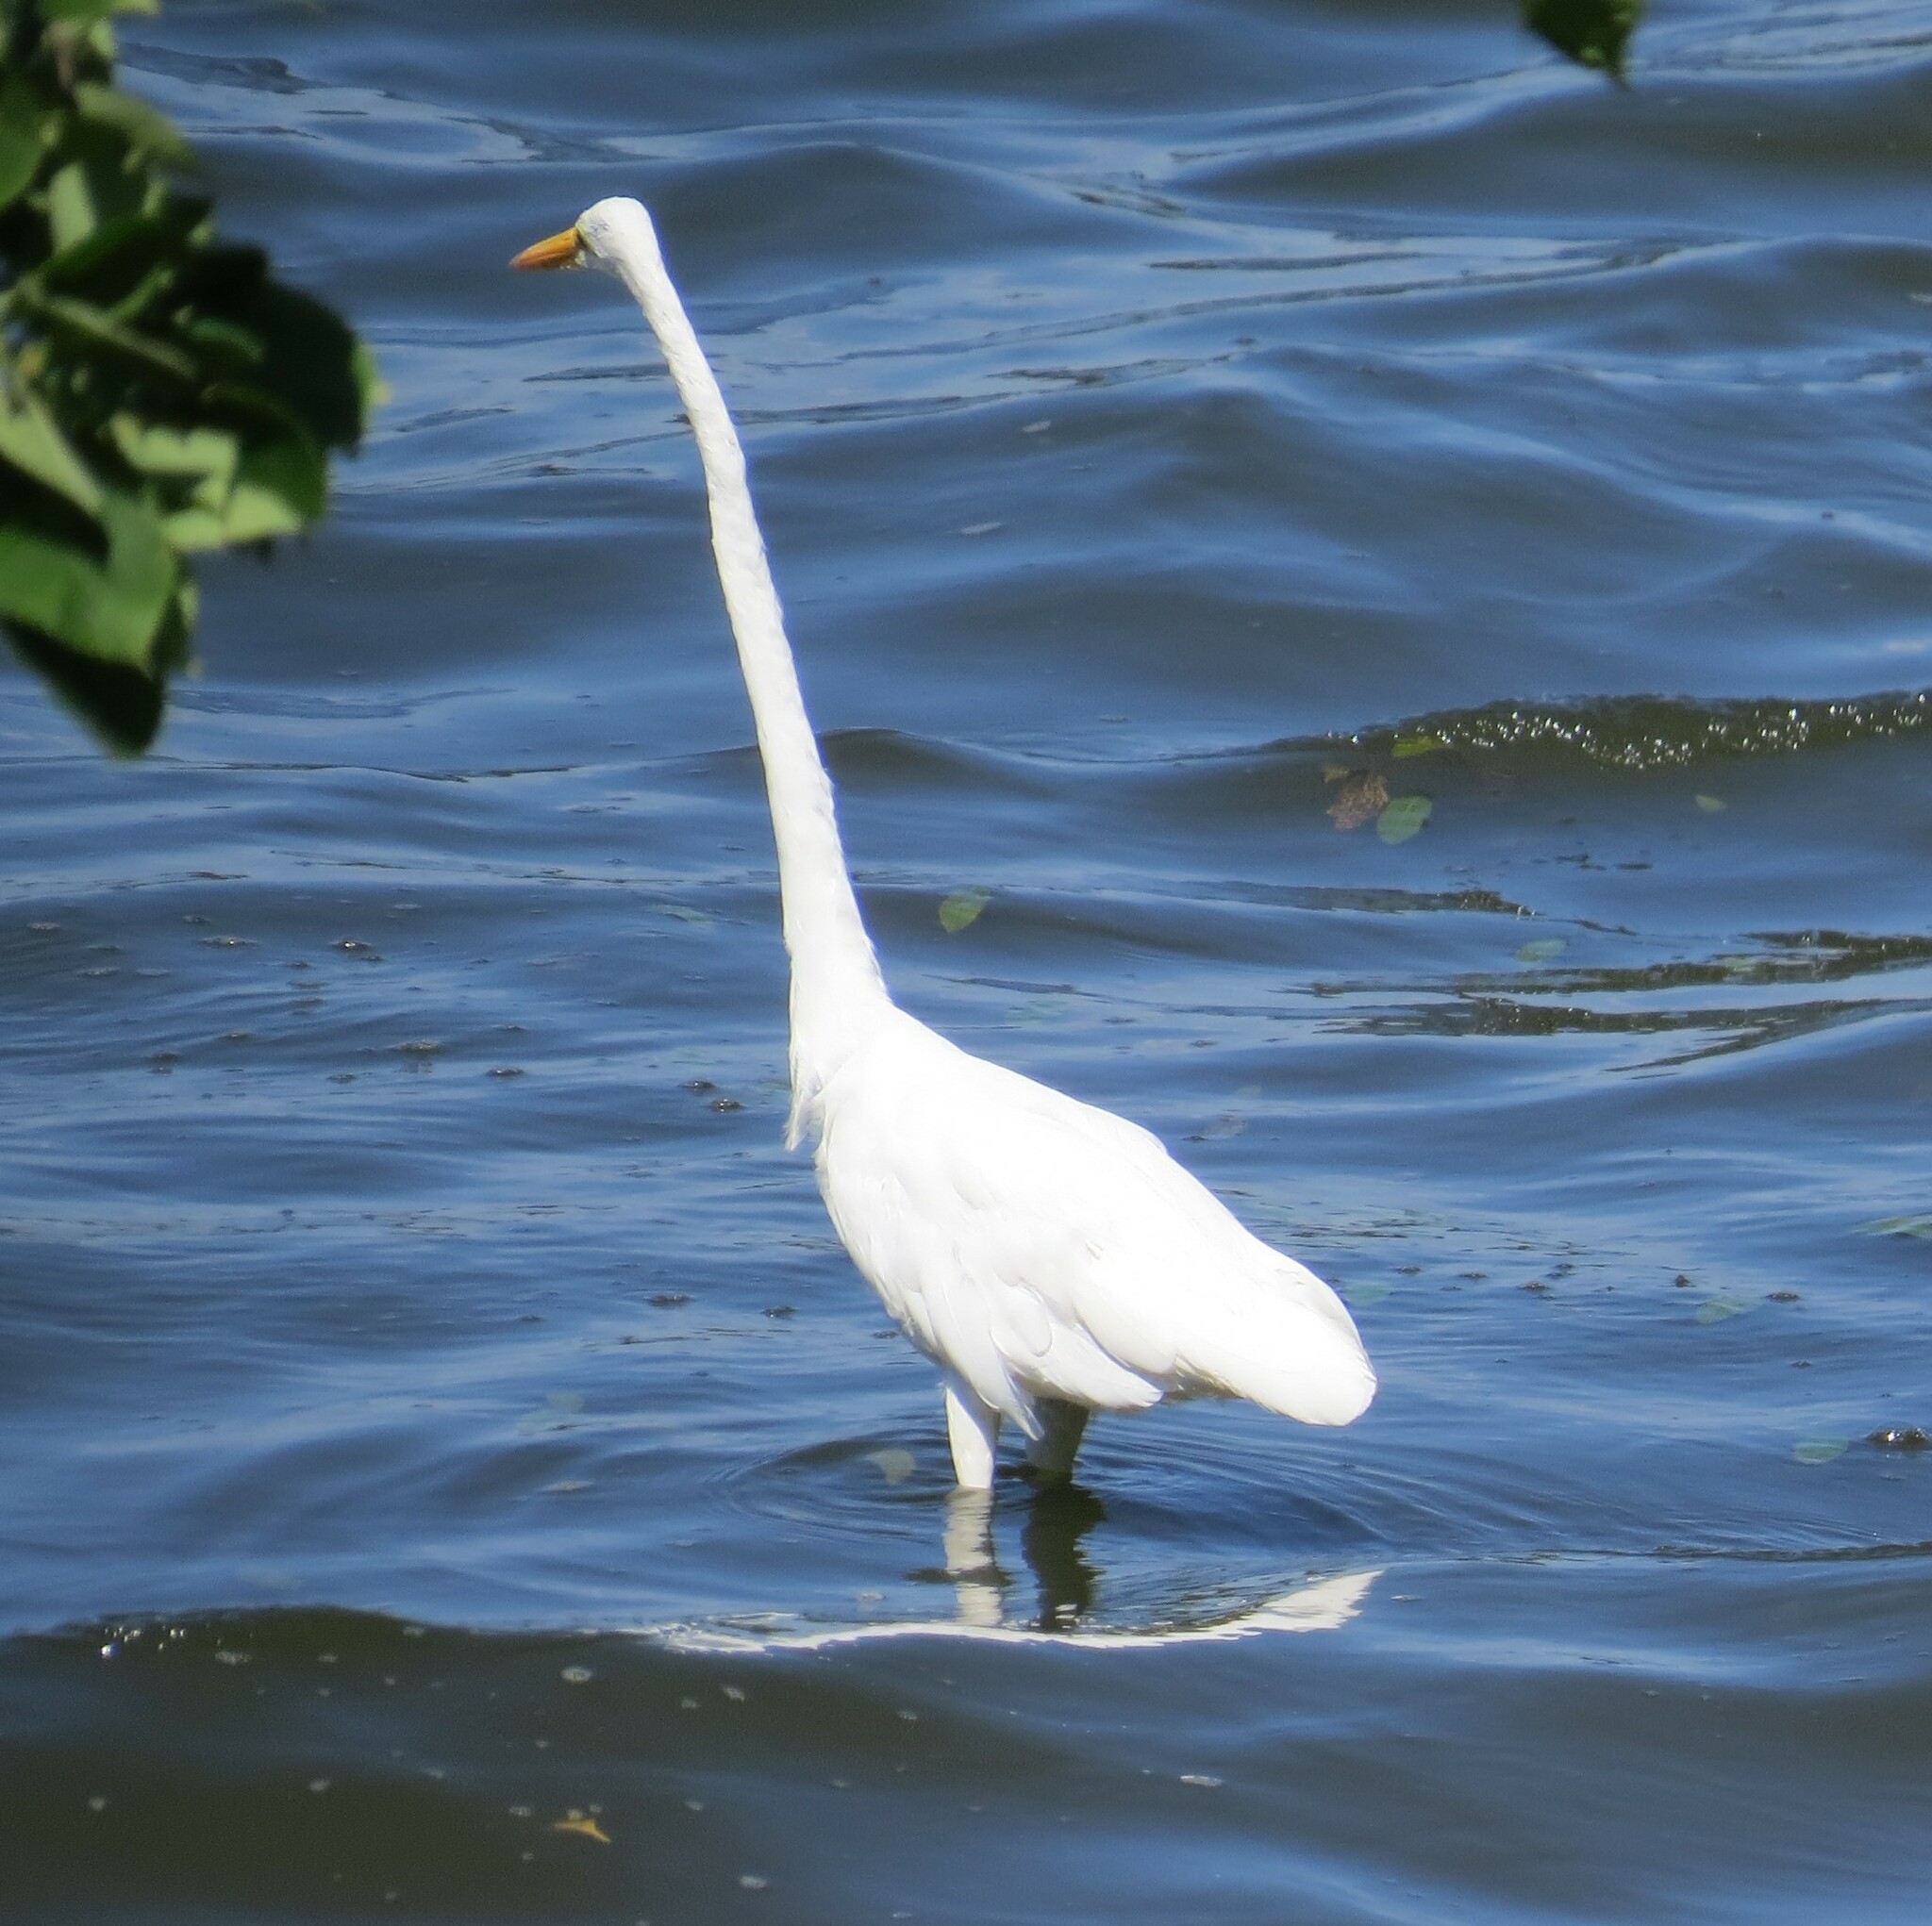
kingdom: Animalia
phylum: Chordata
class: Aves
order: Pelecaniformes
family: Ardeidae
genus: Ardea
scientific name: Ardea alba
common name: Great egret
